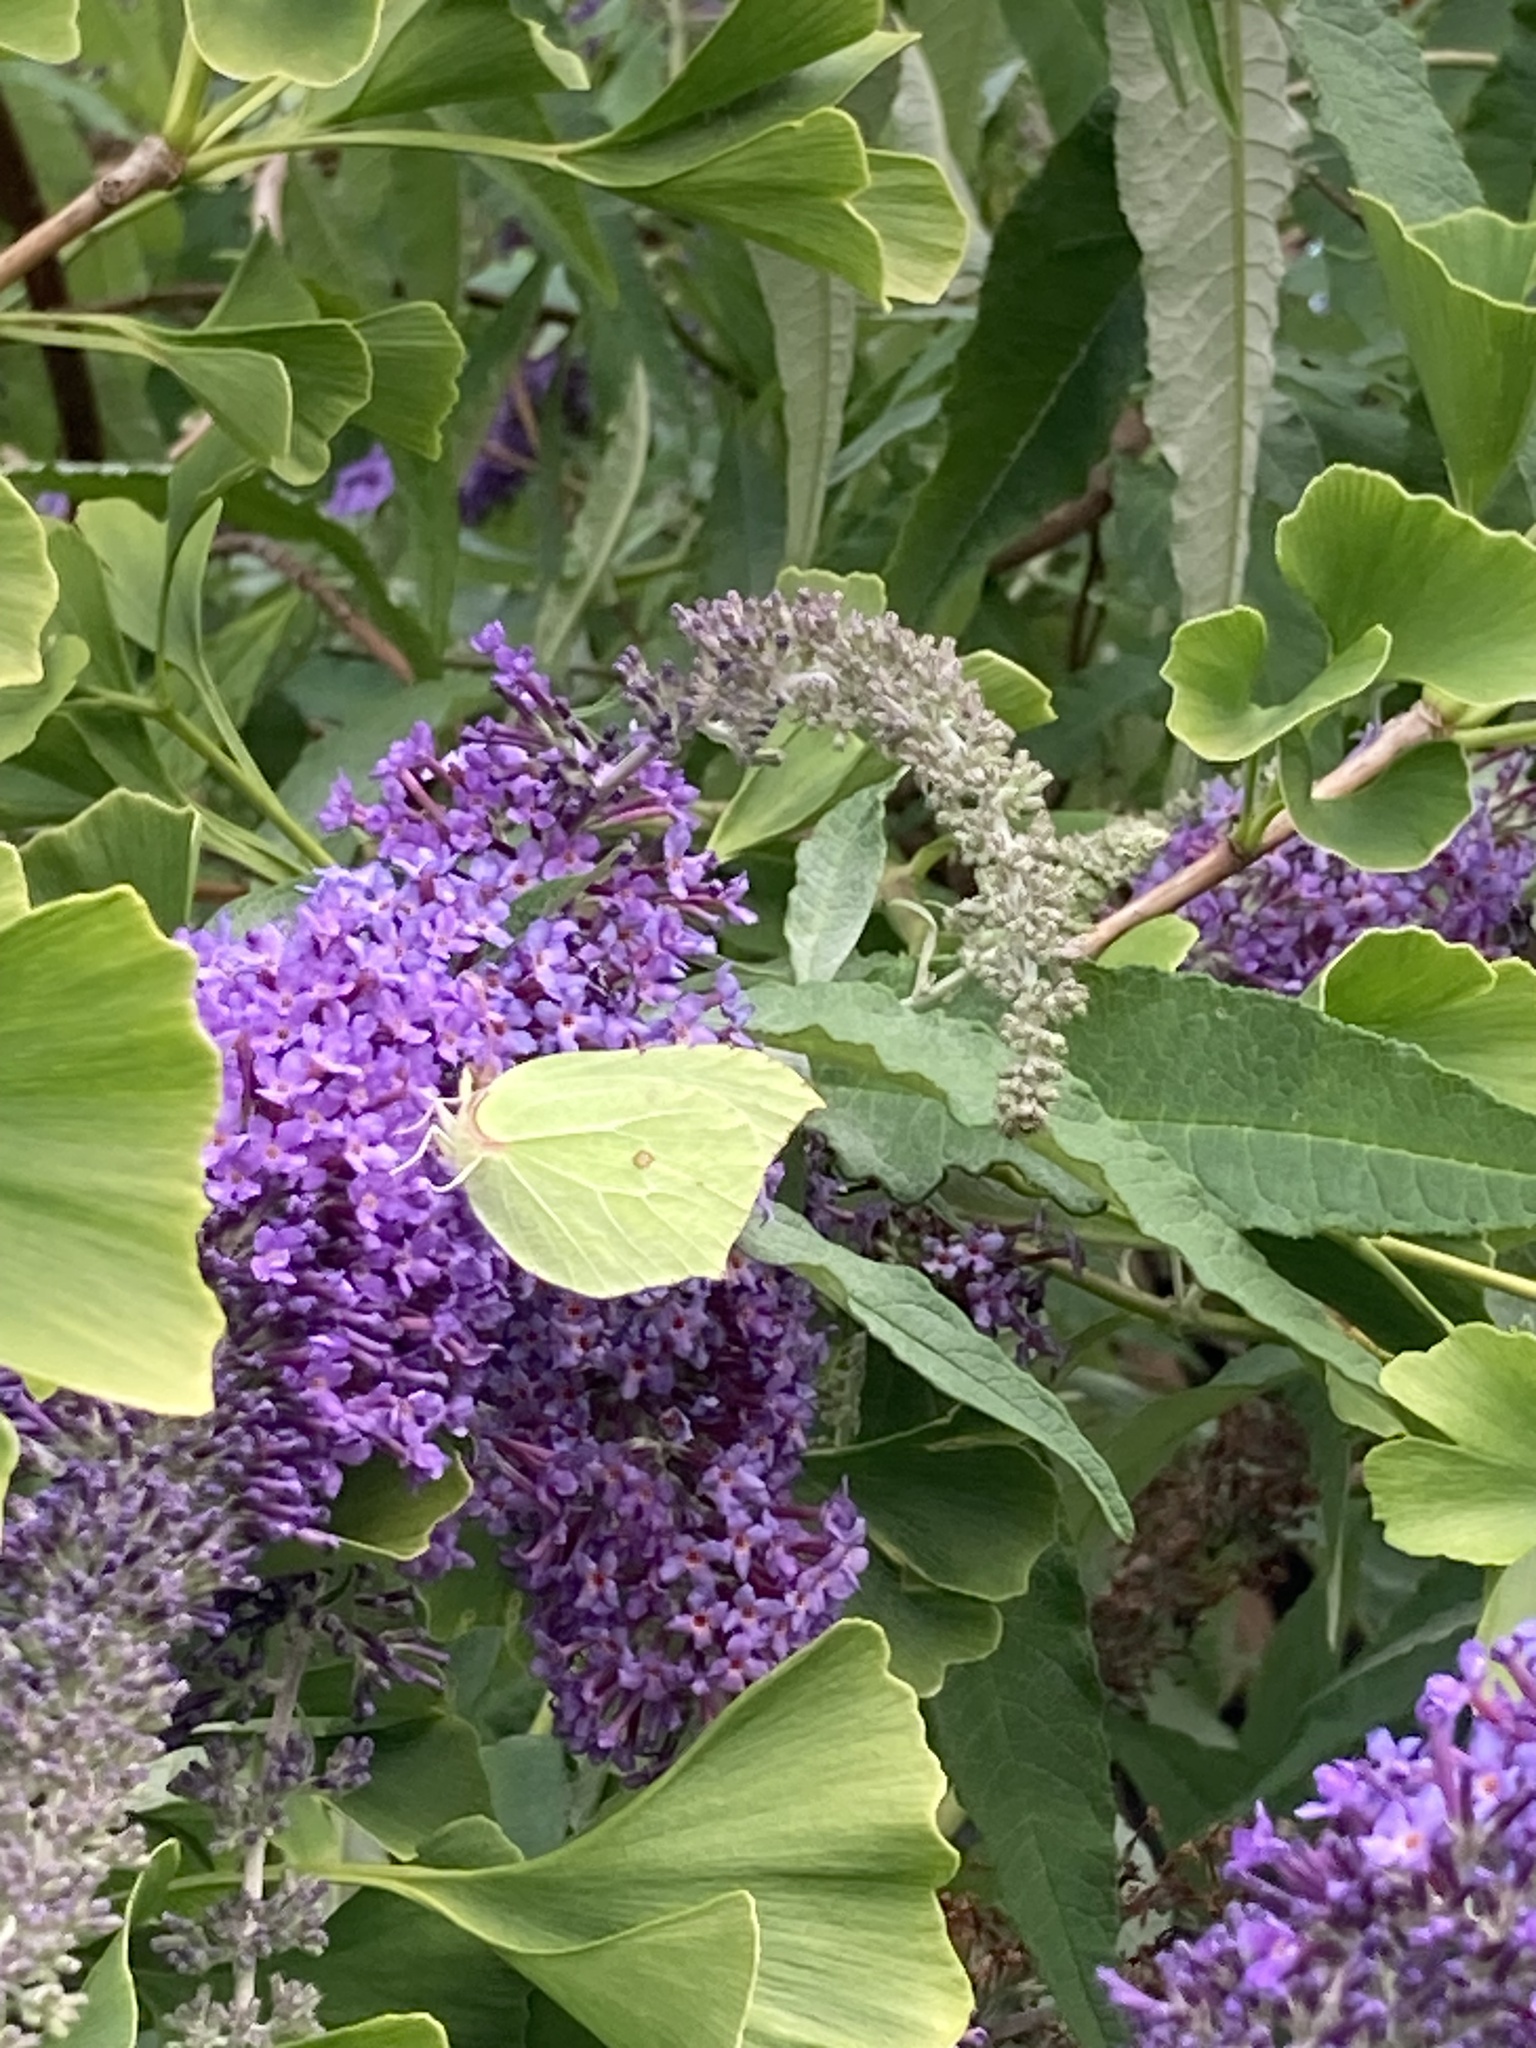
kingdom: Animalia
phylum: Arthropoda
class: Insecta
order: Lepidoptera
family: Pieridae
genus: Gonepteryx
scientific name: Gonepteryx rhamni
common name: Brimstone
